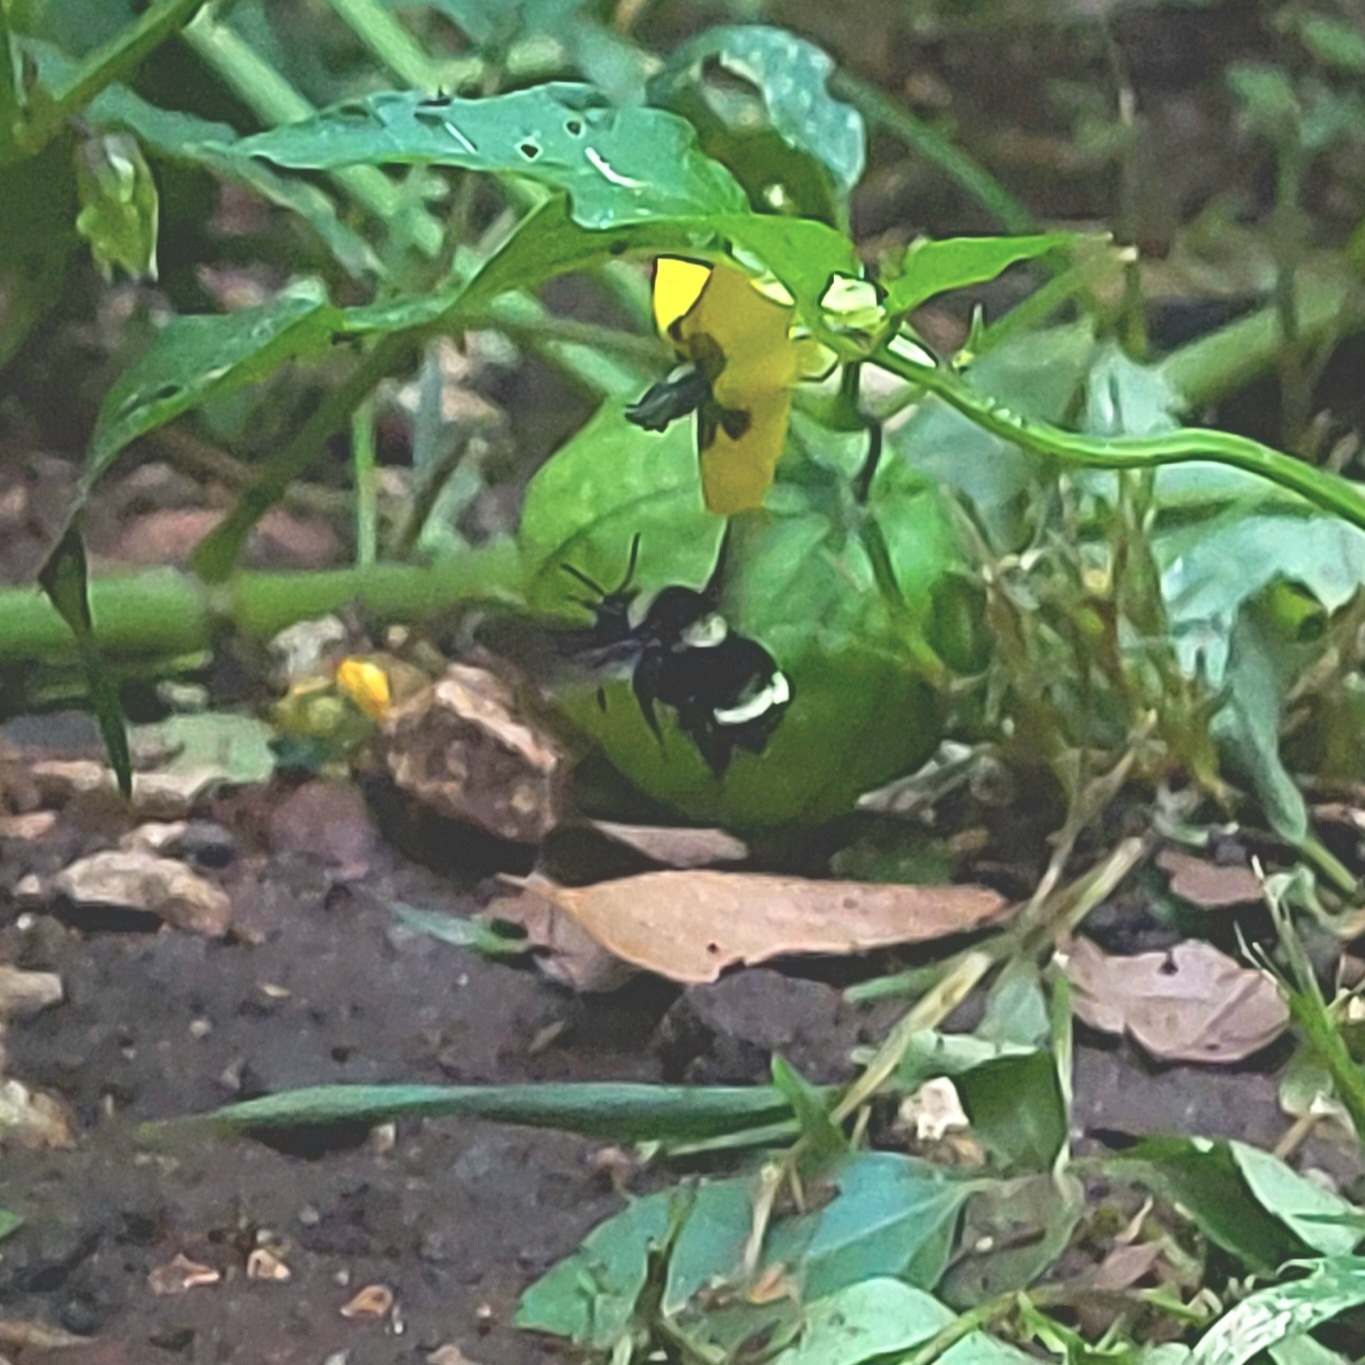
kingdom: Animalia
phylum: Arthropoda
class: Insecta
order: Hymenoptera
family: Apidae
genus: Bombus
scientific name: Bombus medius
